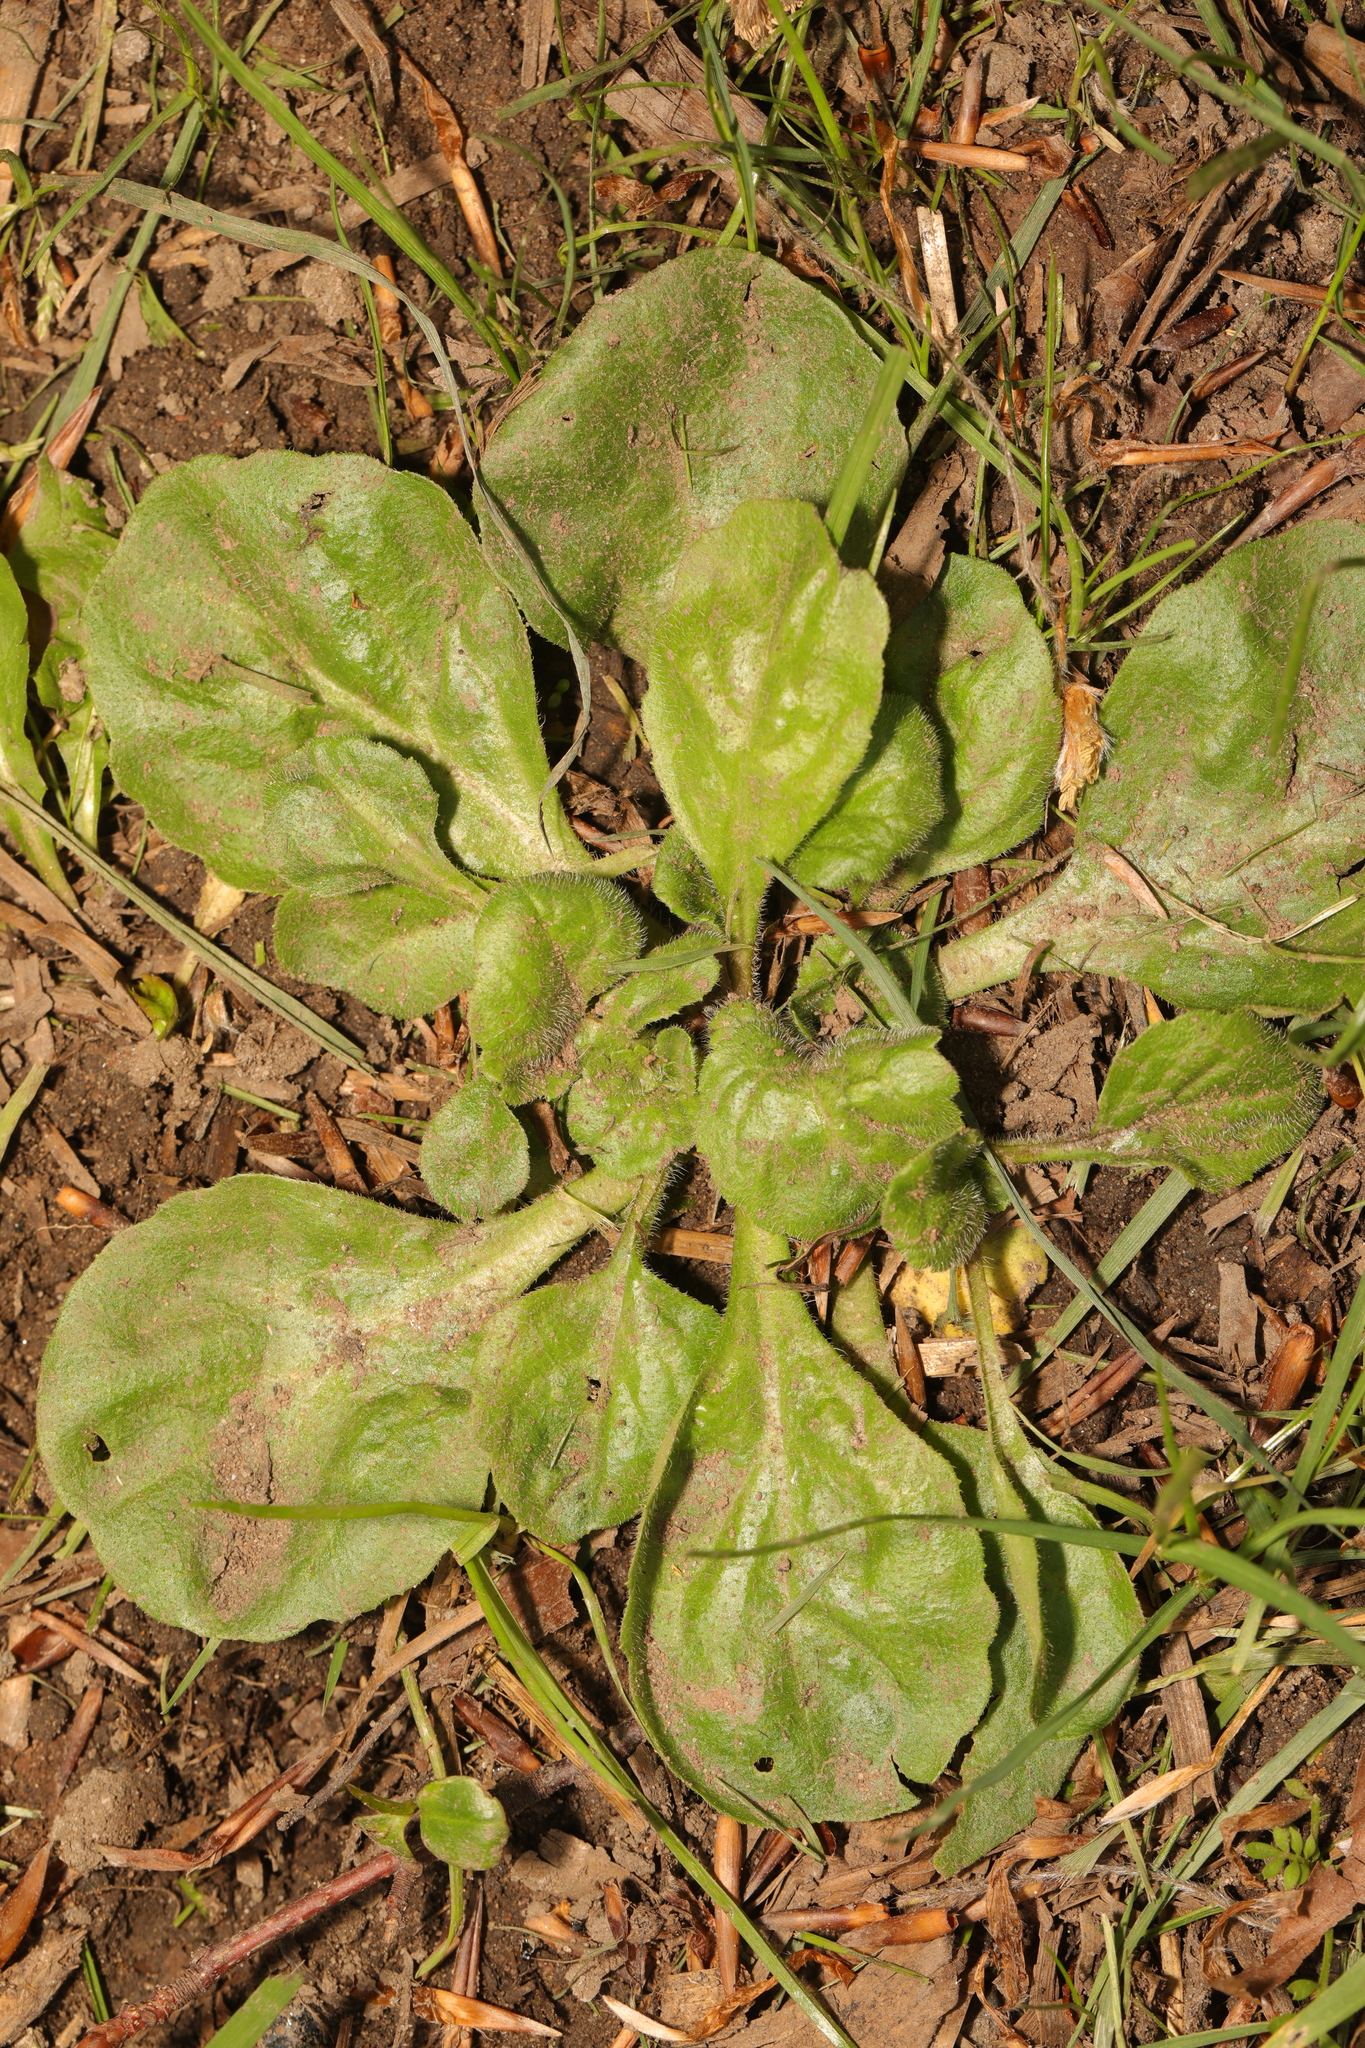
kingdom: Plantae
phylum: Tracheophyta
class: Magnoliopsida
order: Asterales
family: Asteraceae
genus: Bellis
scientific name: Bellis perennis
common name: Lawndaisy
